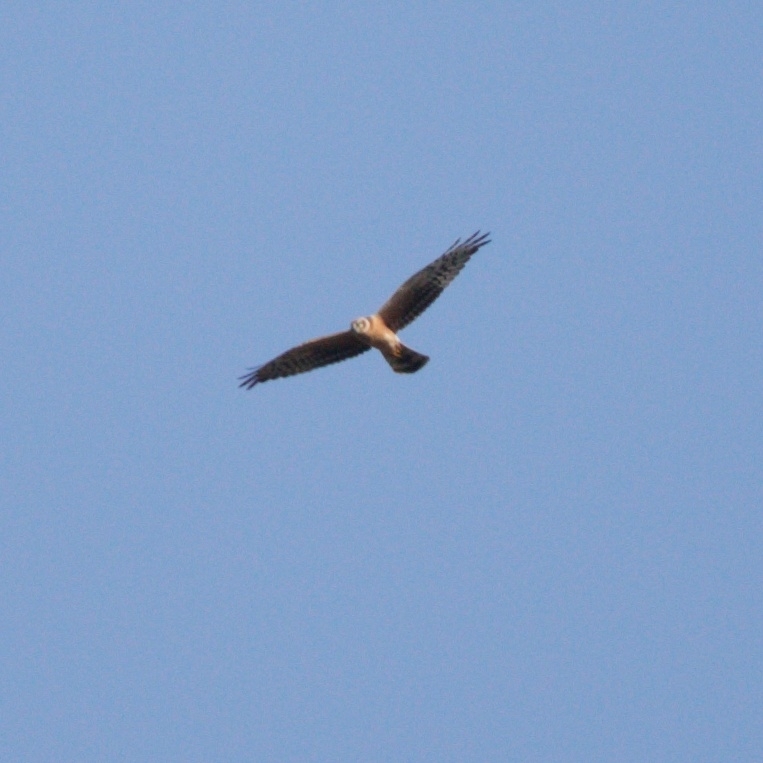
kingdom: Animalia
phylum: Chordata
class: Aves
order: Accipitriformes
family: Accipitridae
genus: Circus
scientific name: Circus macrourus
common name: Pallid harrier
